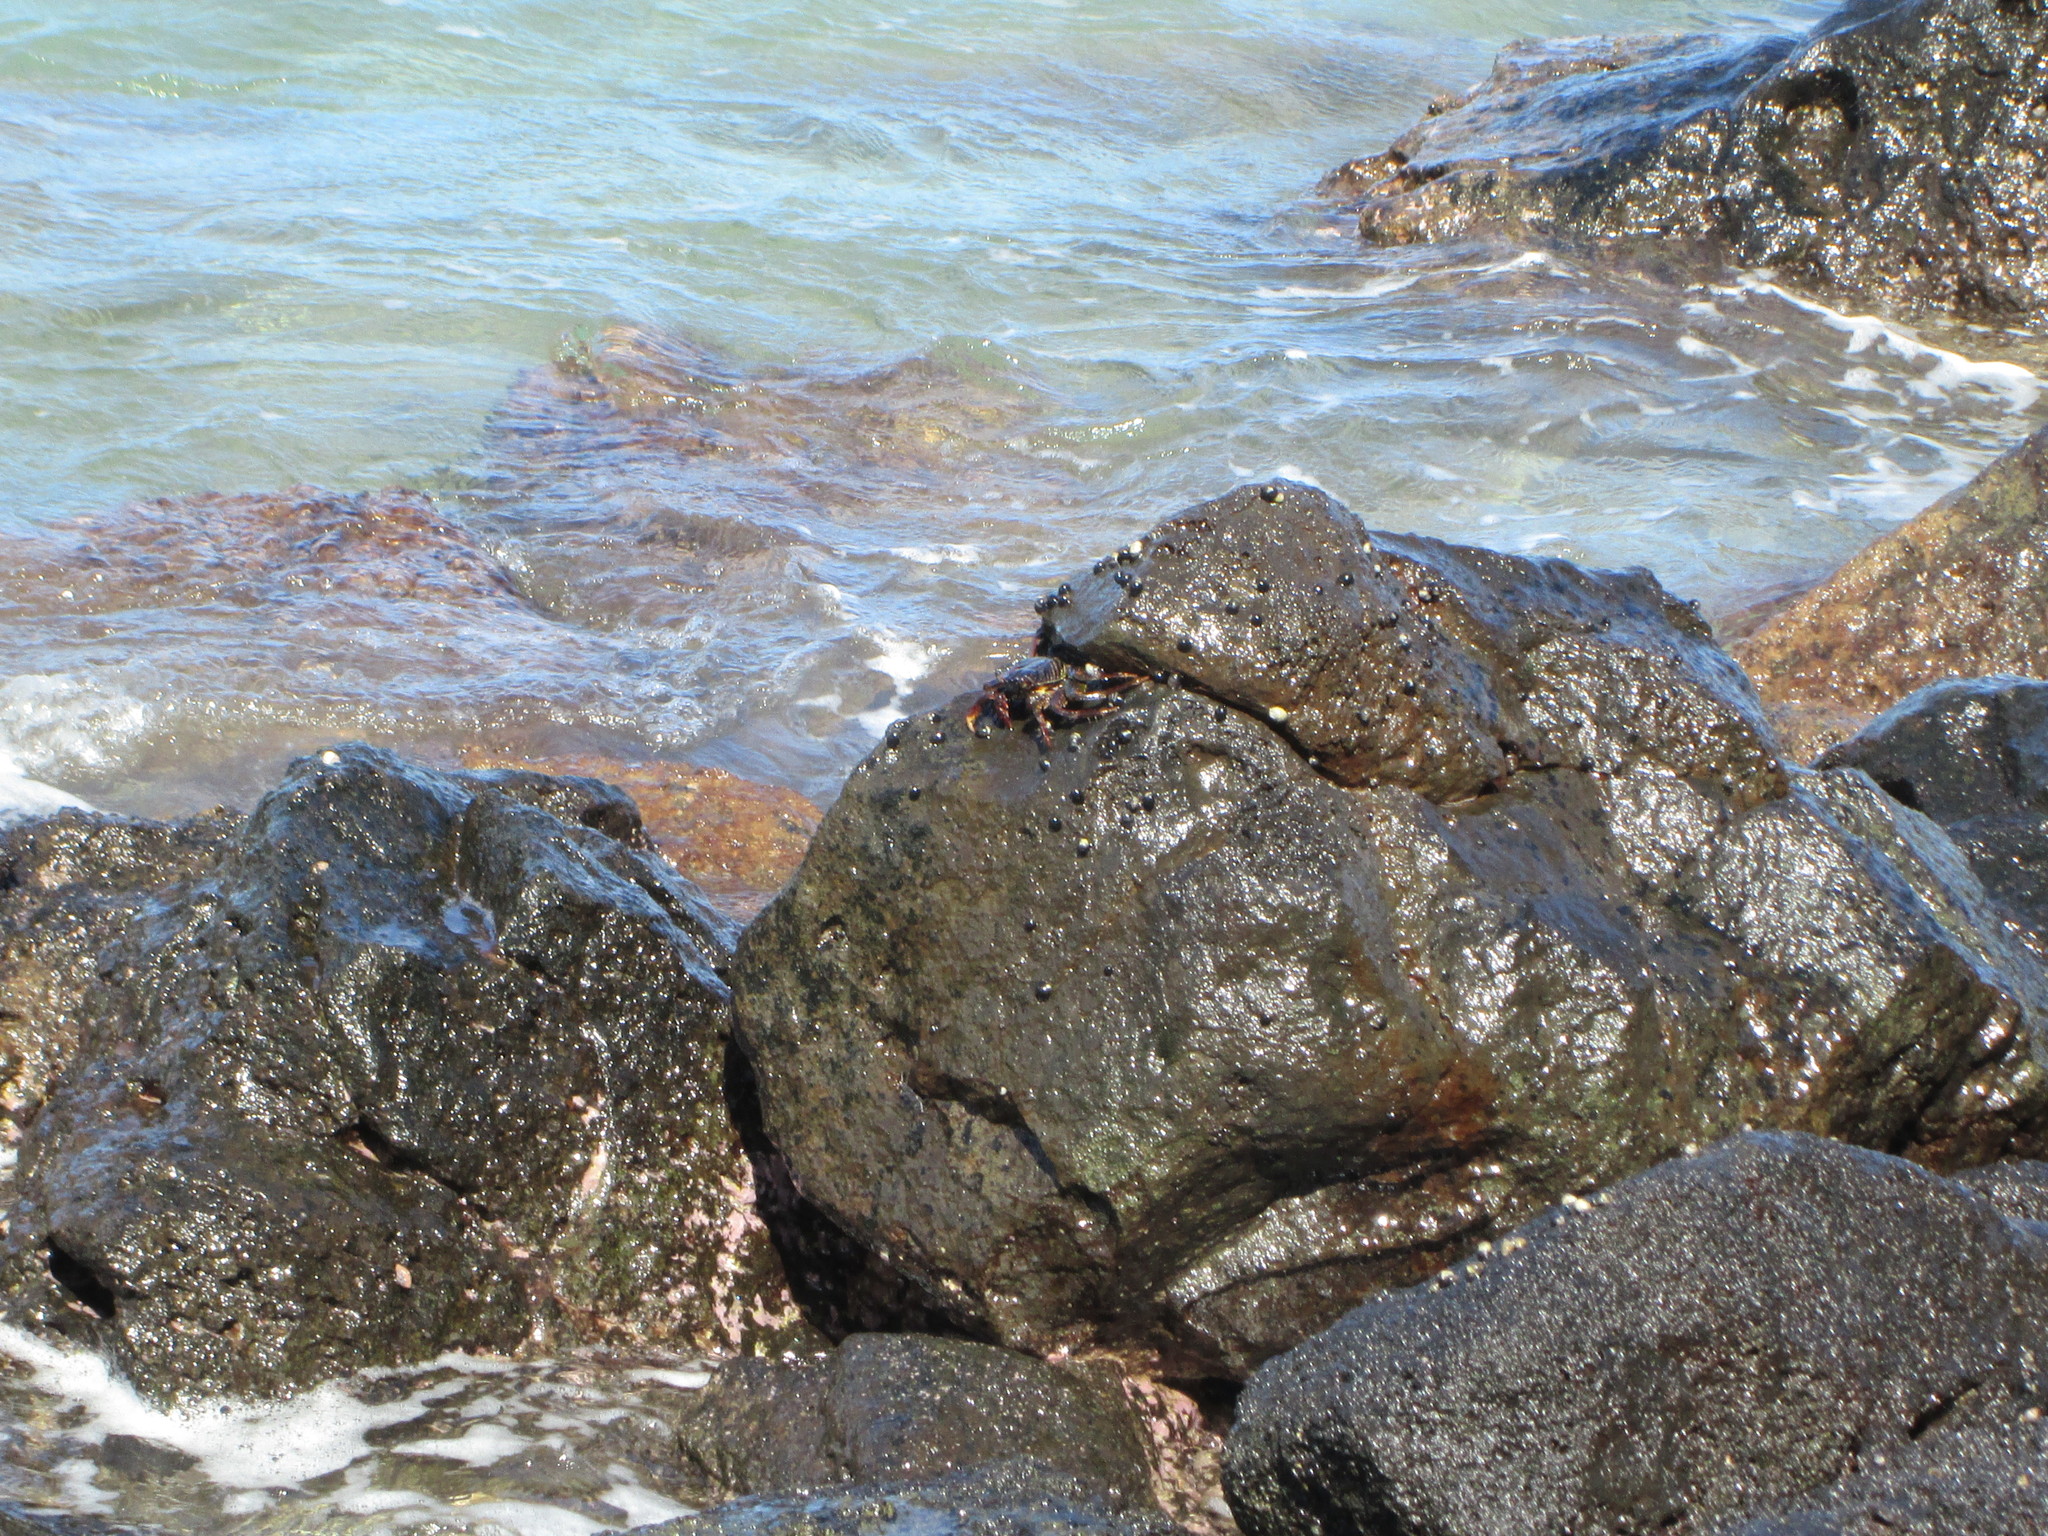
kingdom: Animalia
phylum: Arthropoda
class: Malacostraca
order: Decapoda
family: Grapsidae
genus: Grapsus
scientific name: Grapsus tenuicrustatus
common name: Natal lightfoot crab
